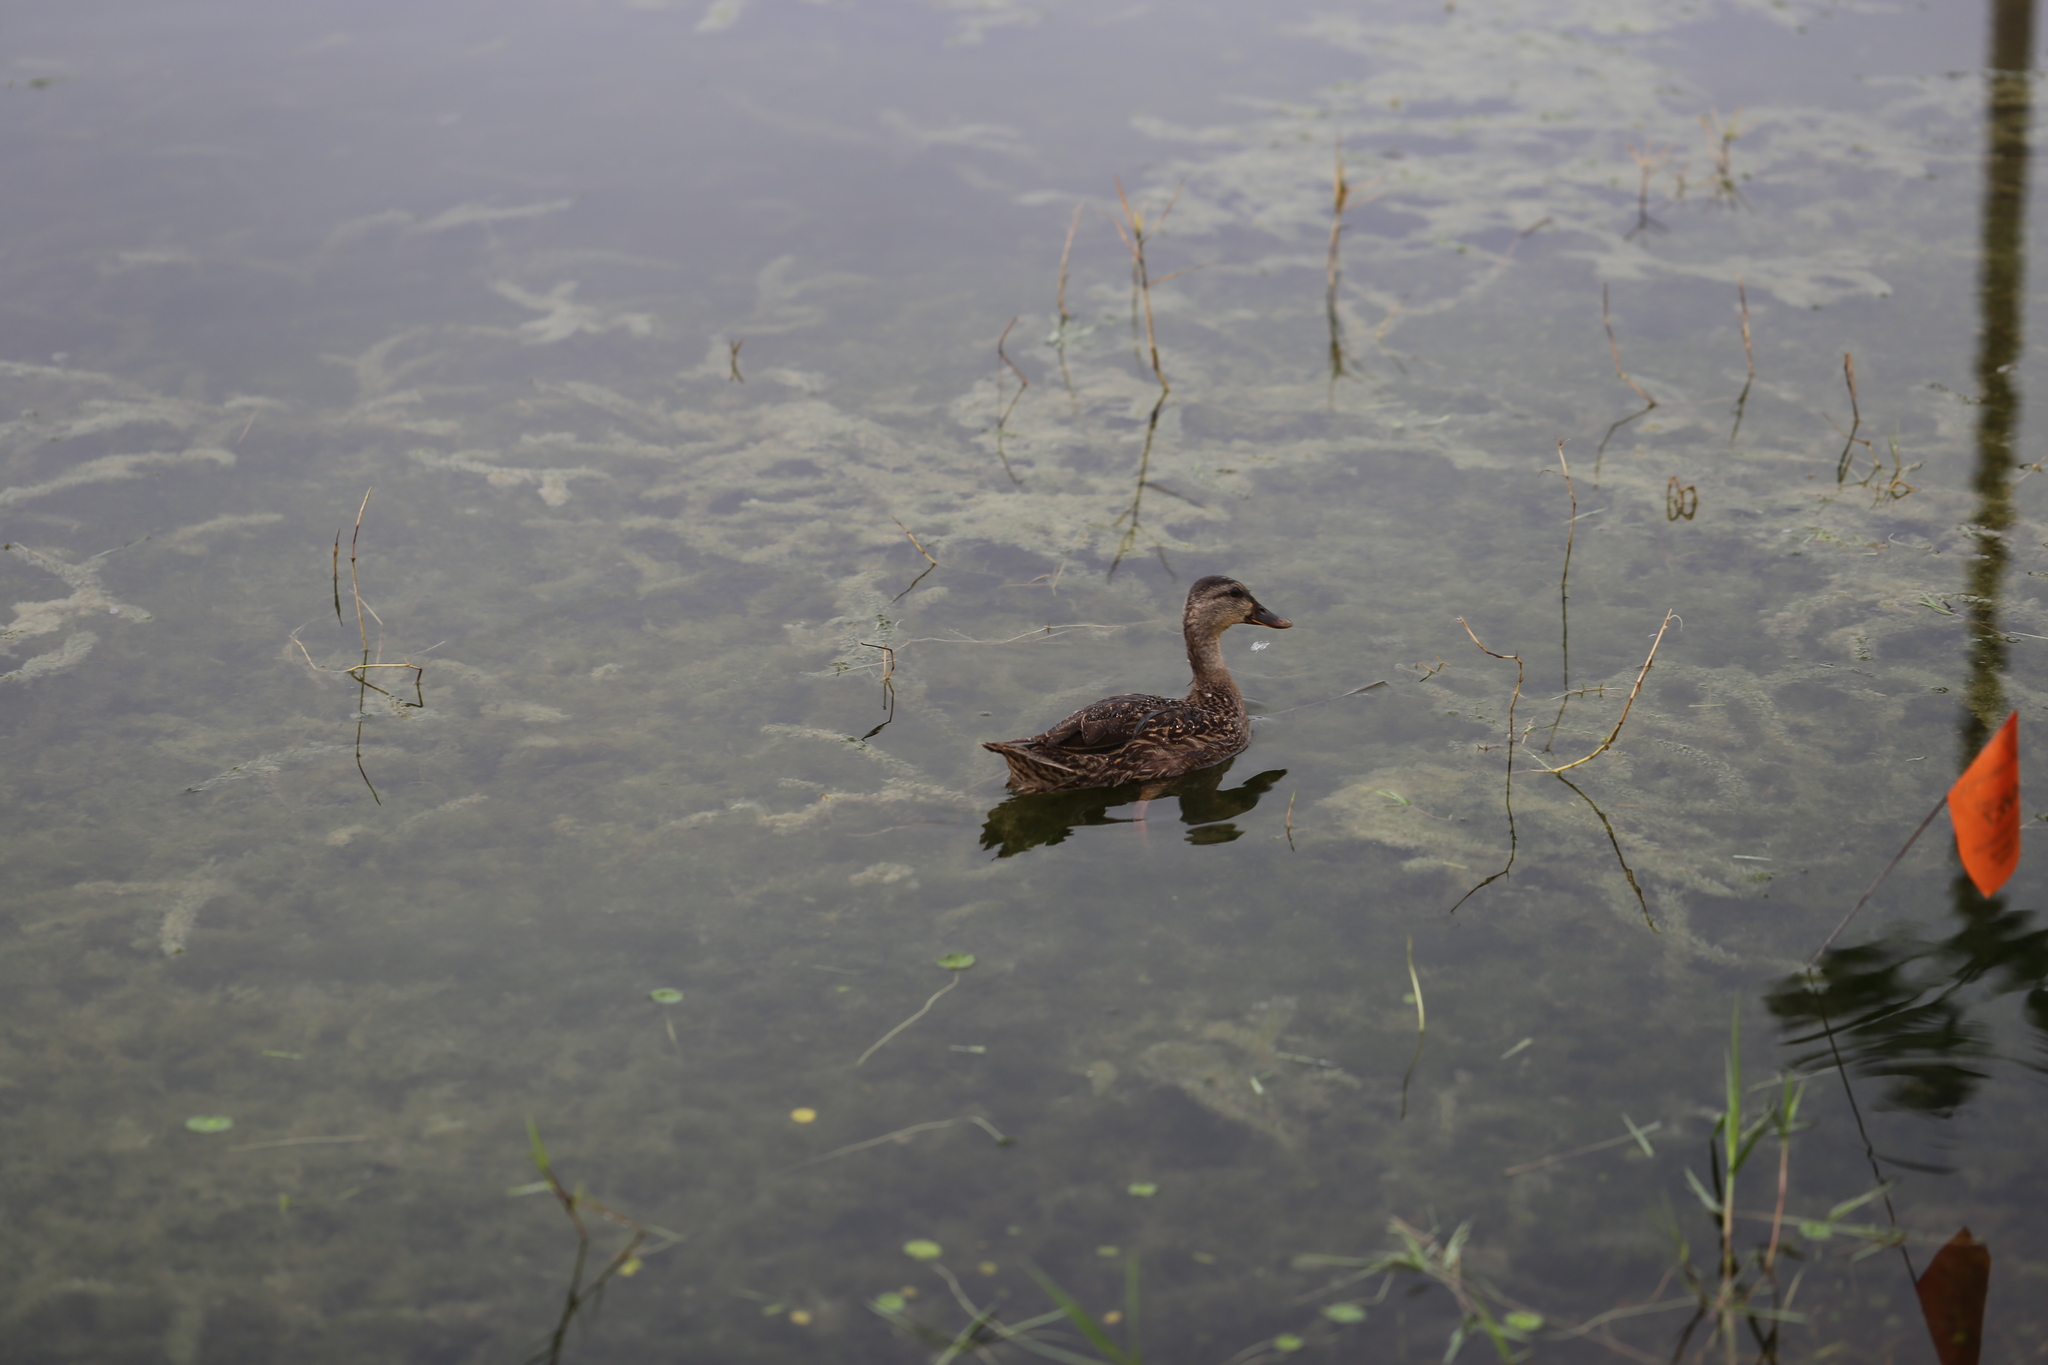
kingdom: Animalia
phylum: Chordata
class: Aves
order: Anseriformes
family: Anatidae
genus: Anas
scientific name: Anas
